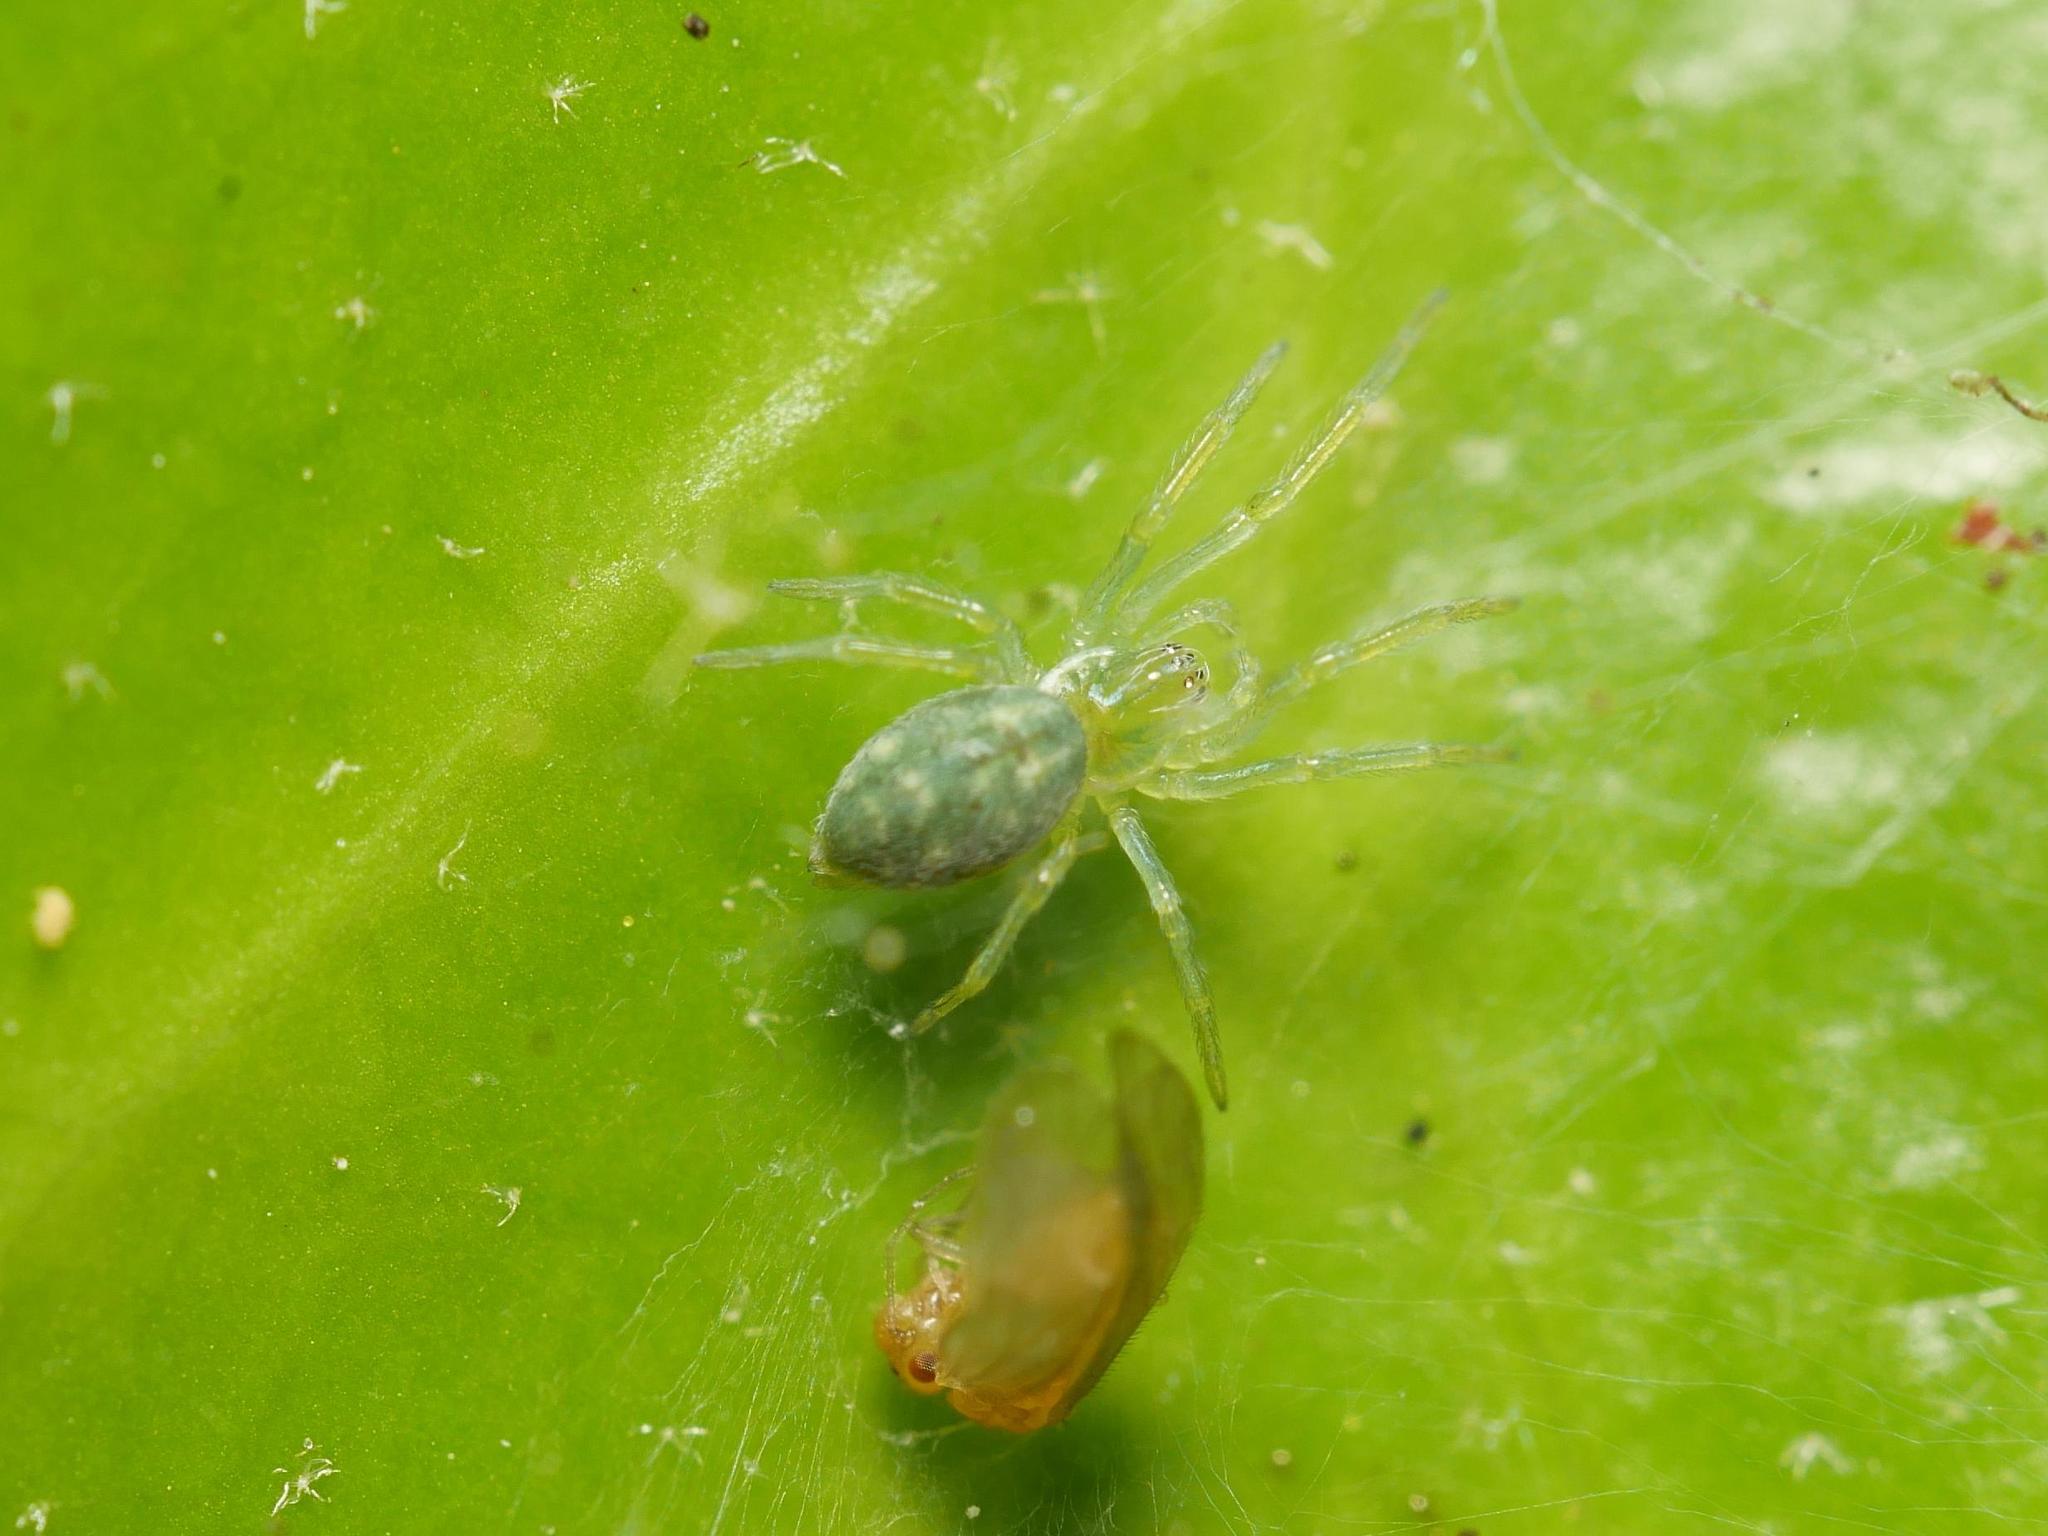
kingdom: Animalia
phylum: Arthropoda
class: Arachnida
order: Araneae
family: Dictynidae
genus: Nigma
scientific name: Nigma walckenaeri
